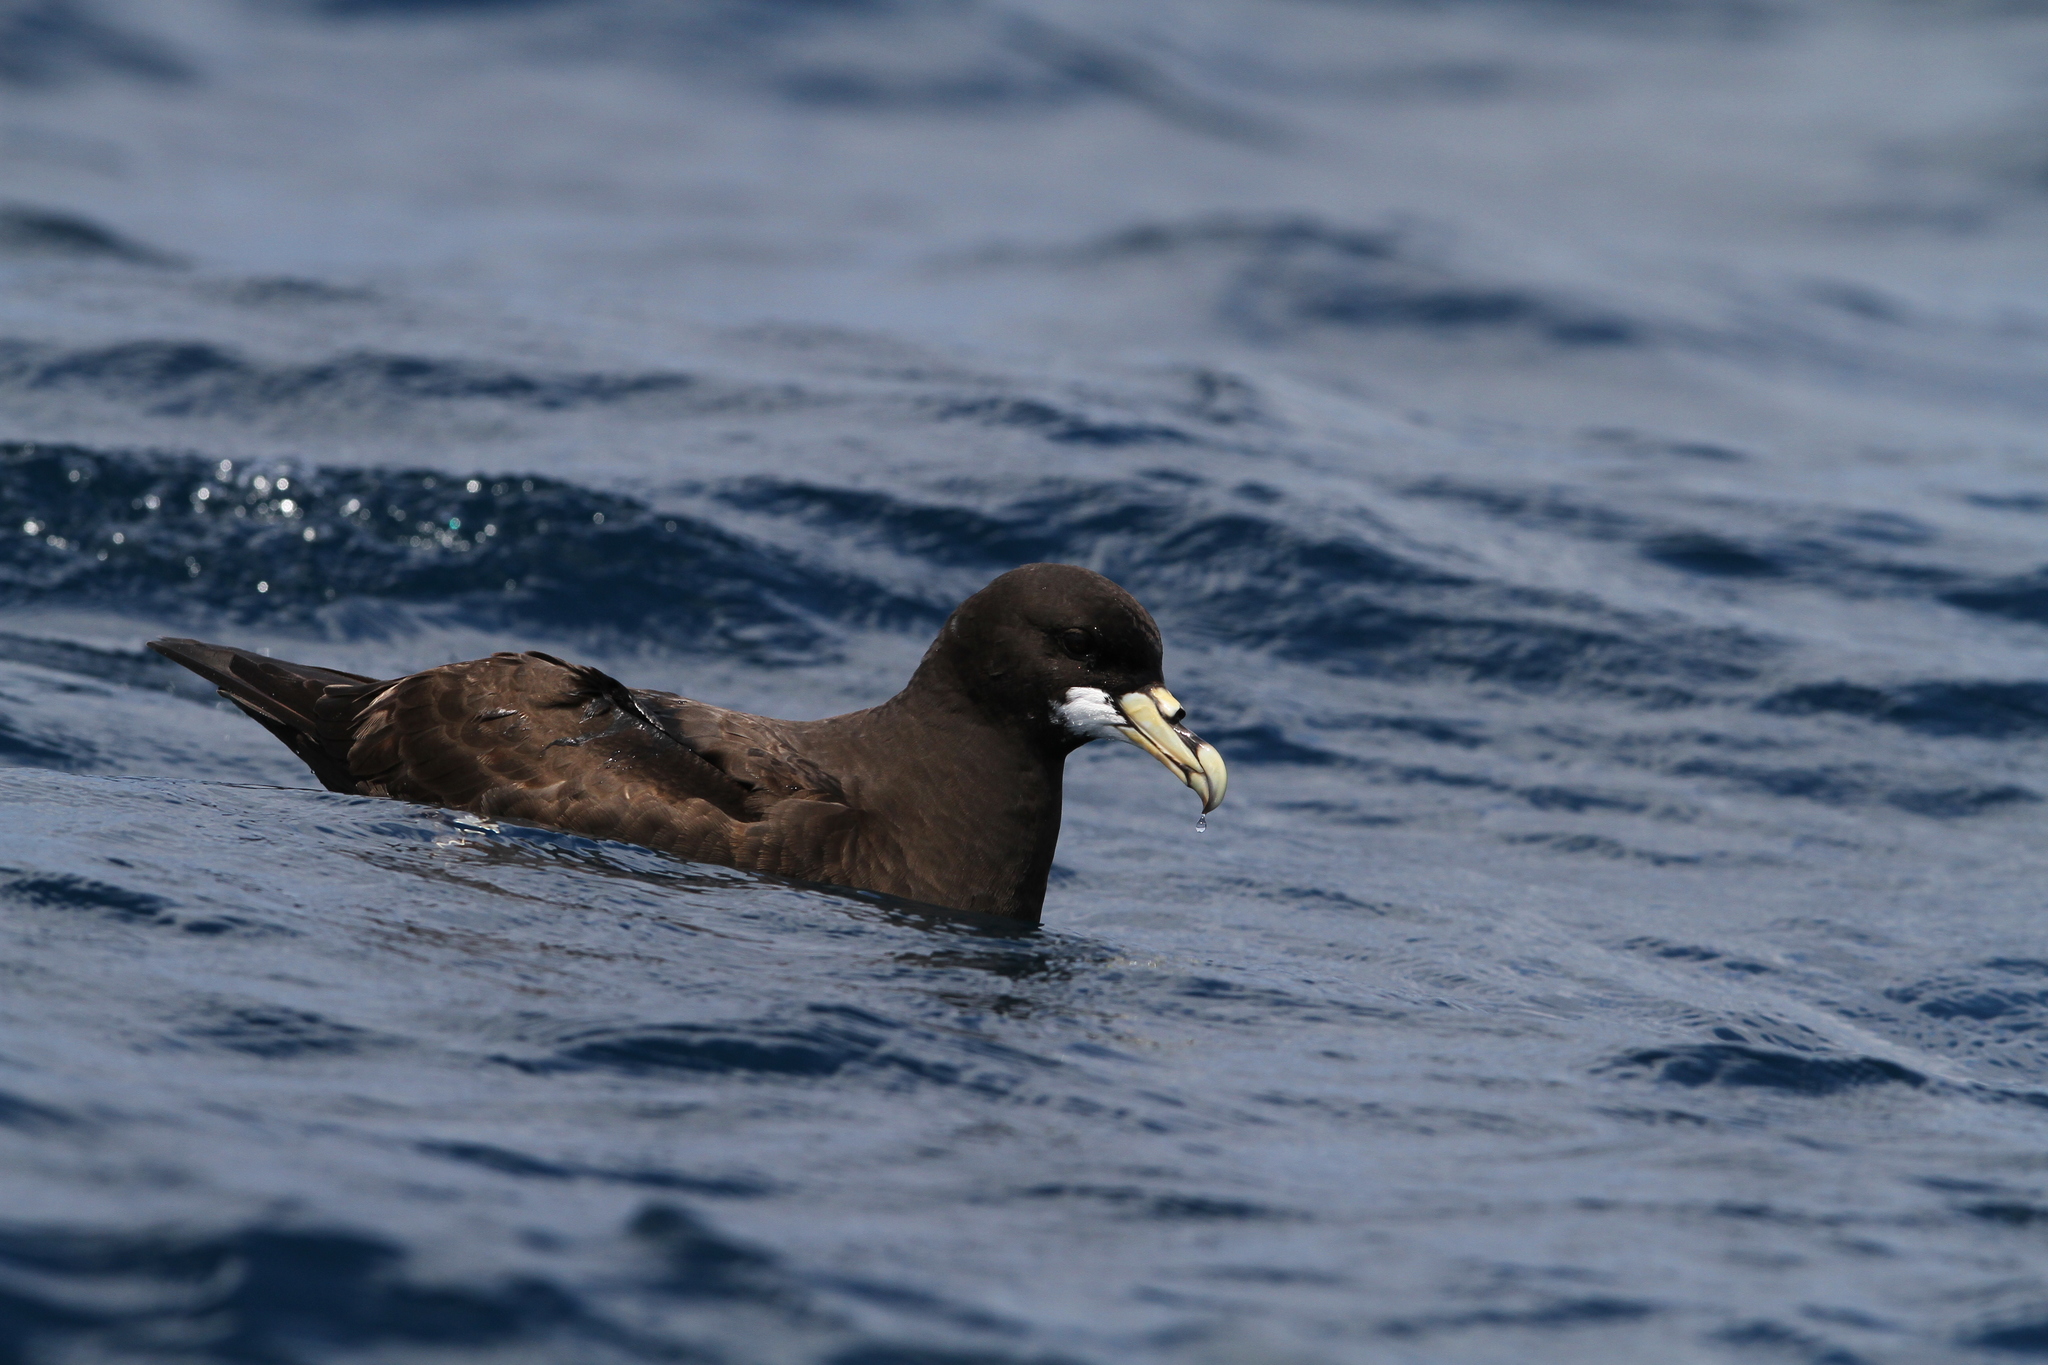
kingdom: Animalia
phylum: Chordata
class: Aves
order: Procellariiformes
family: Procellariidae
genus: Procellaria
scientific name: Procellaria aequinoctialis
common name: White-chinned petrel
